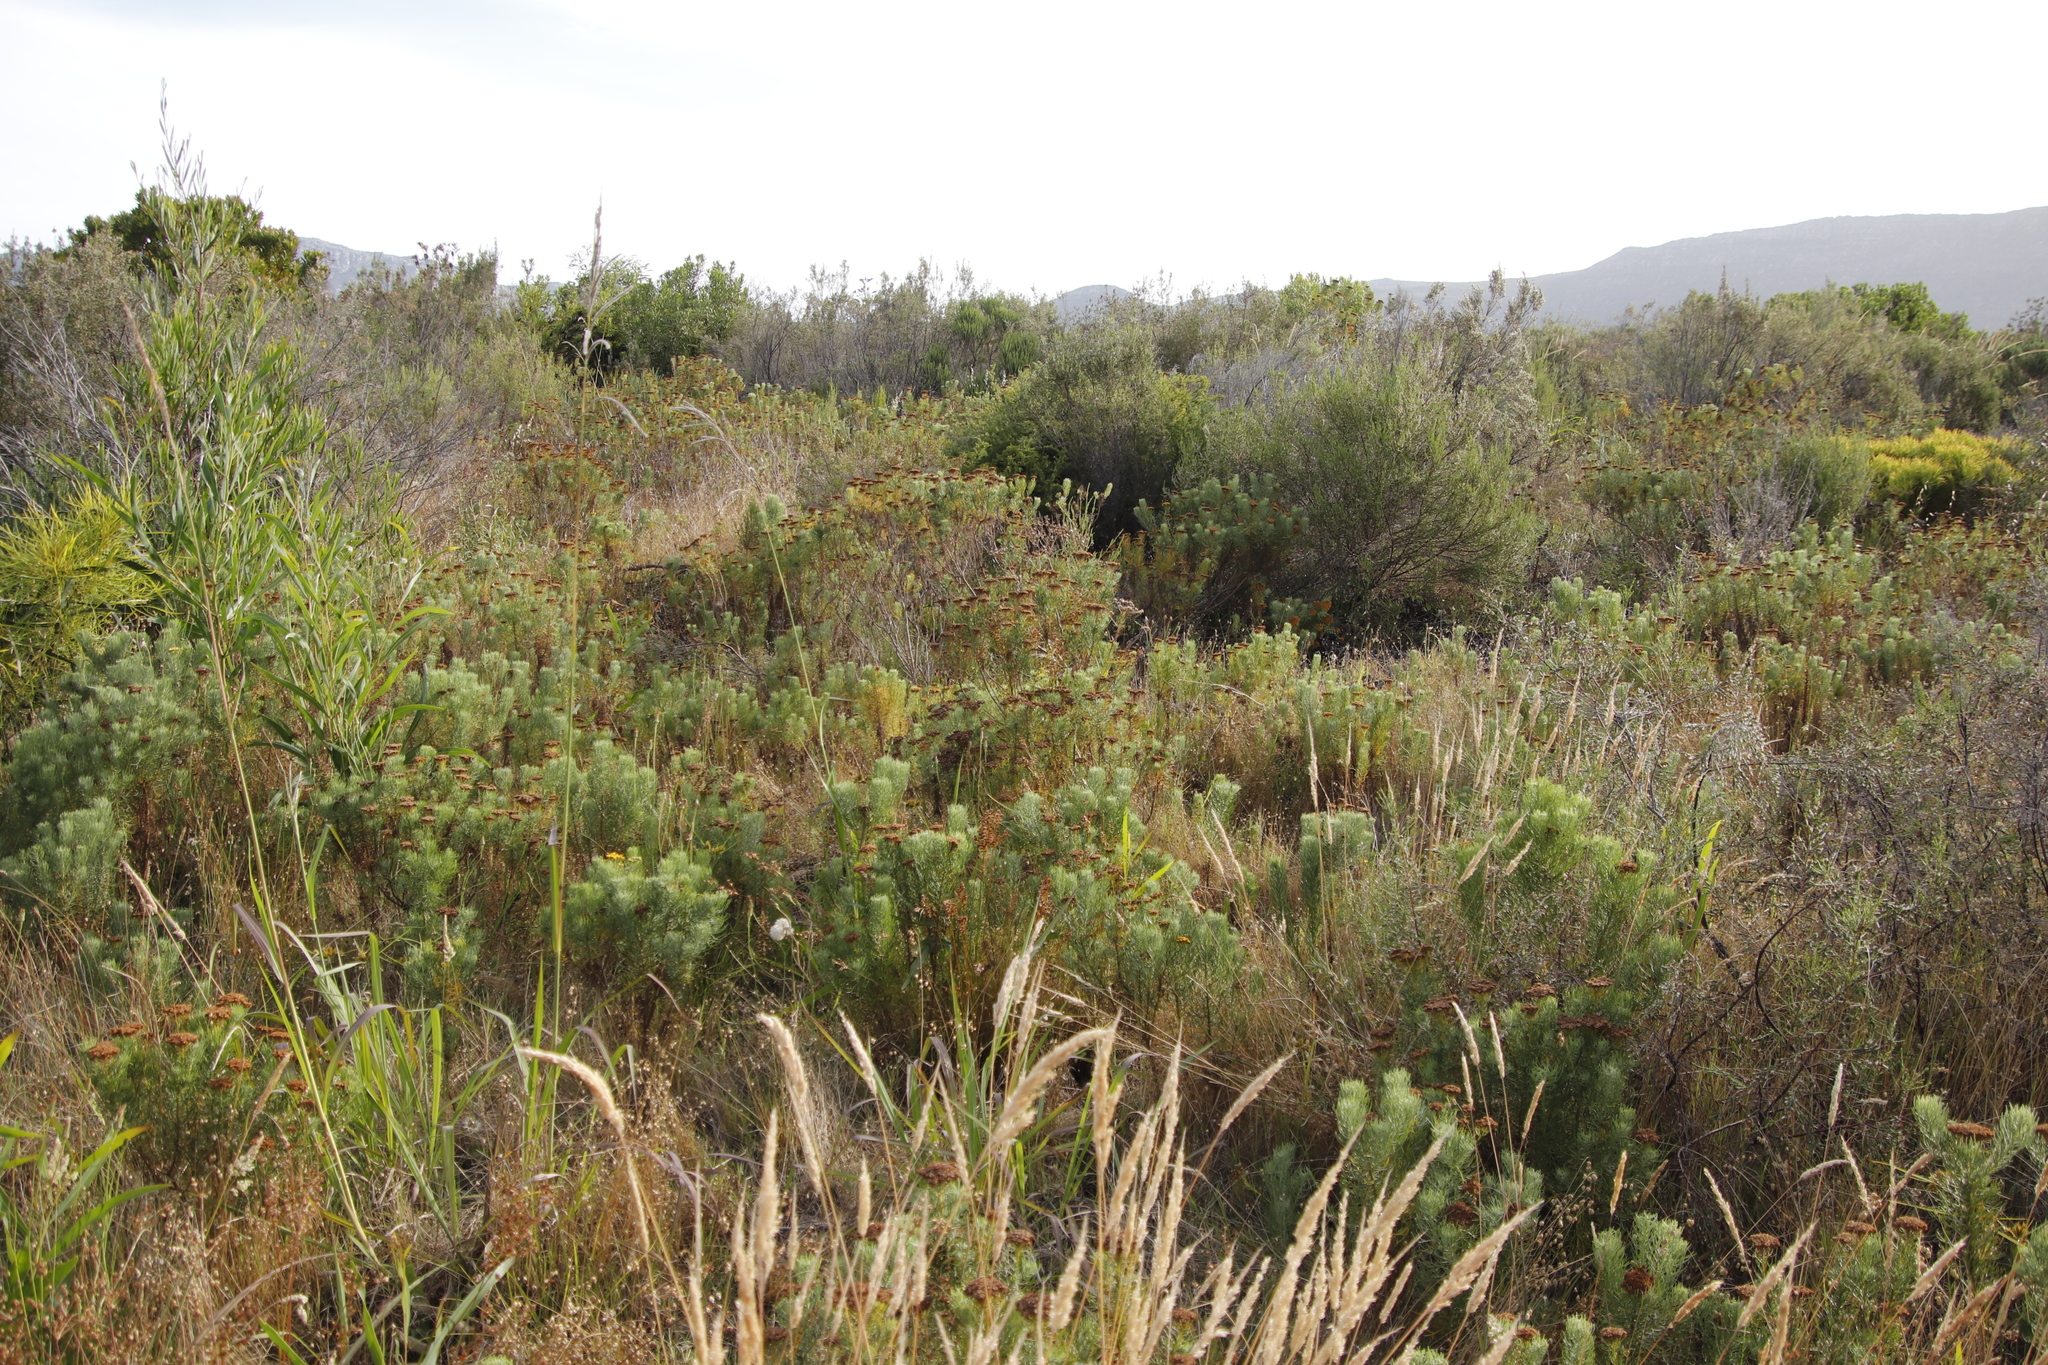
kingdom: Plantae
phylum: Tracheophyta
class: Magnoliopsida
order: Asterales
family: Asteraceae
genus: Athanasia
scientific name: Athanasia crithmifolia
